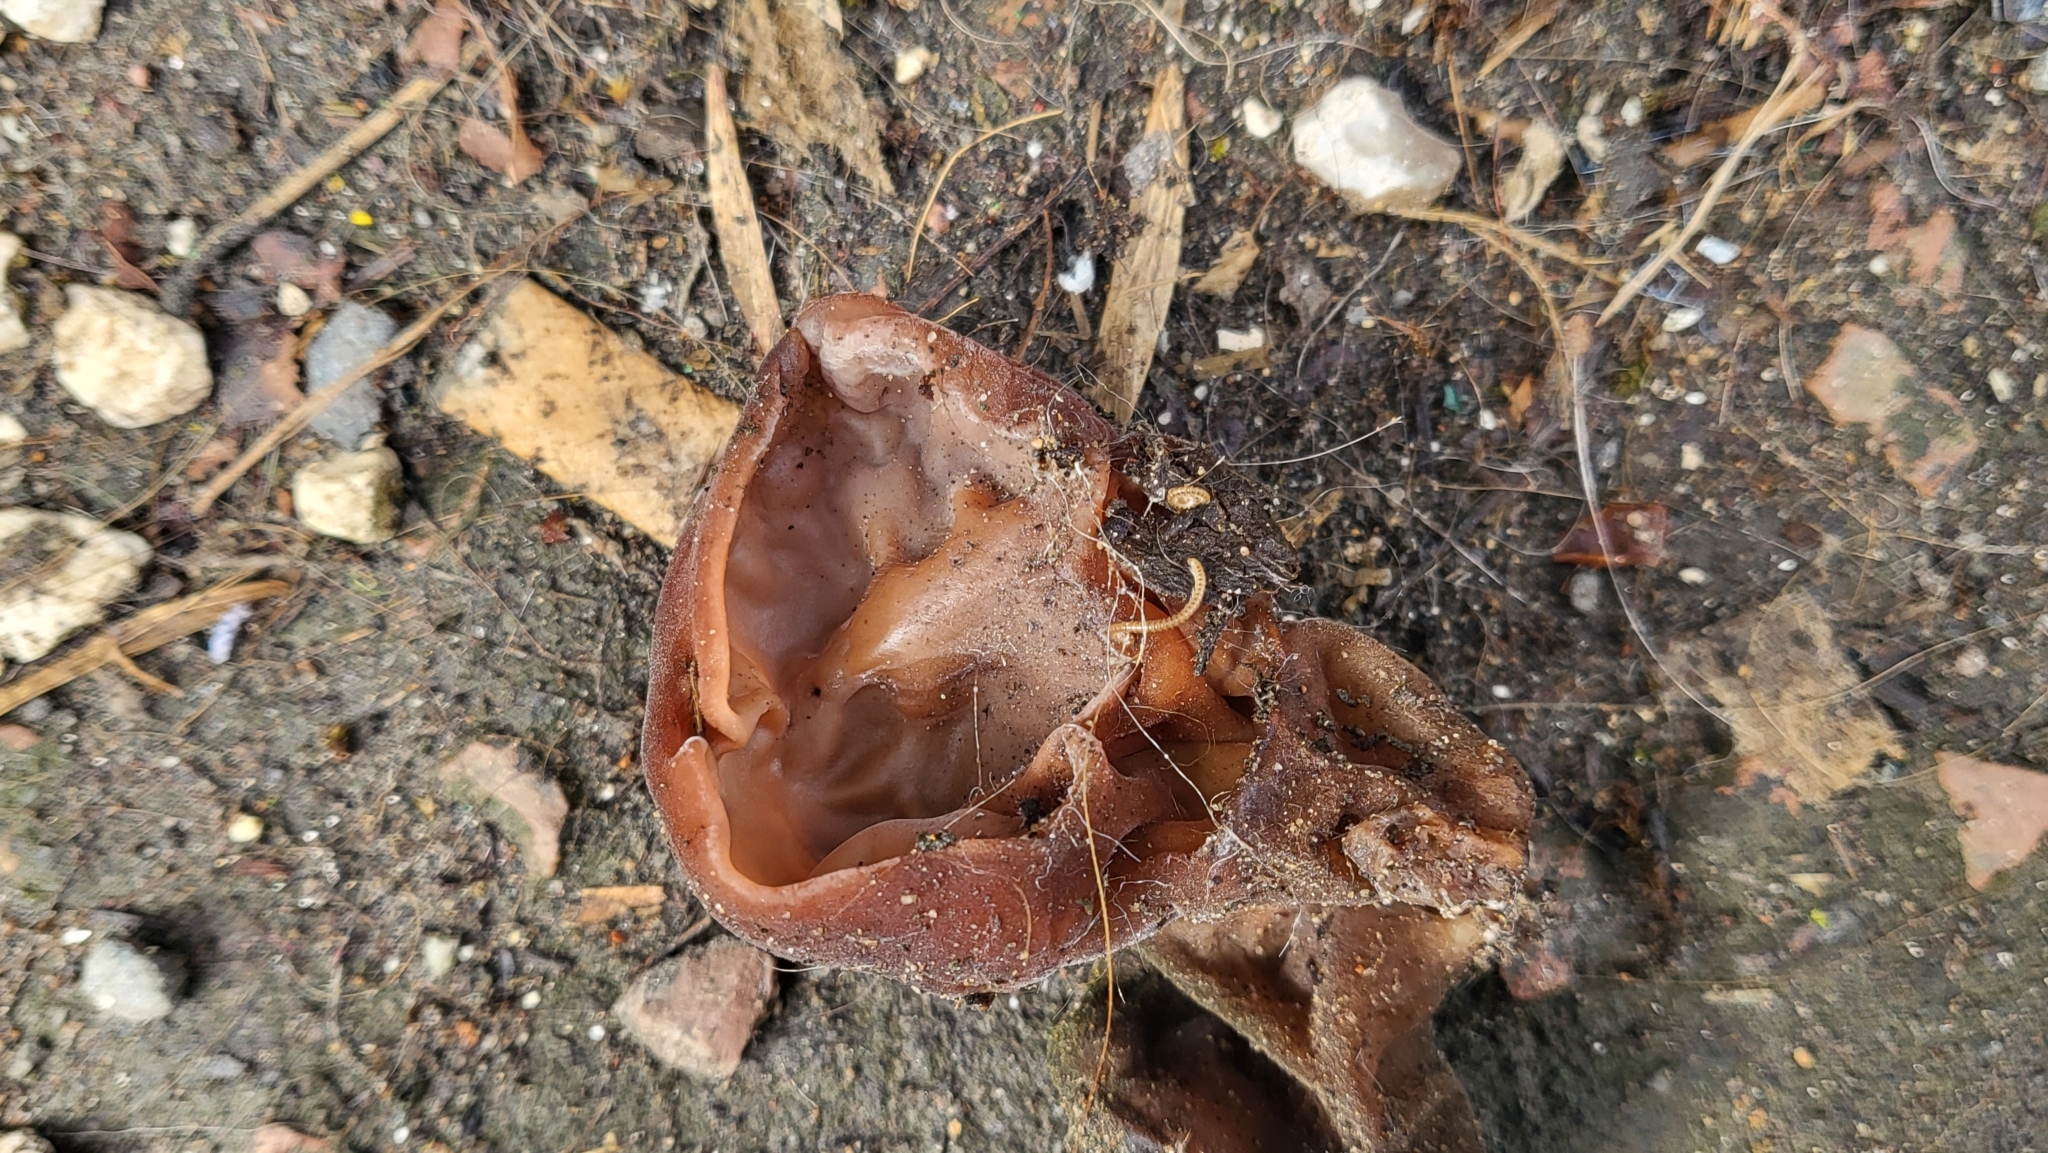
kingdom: Fungi
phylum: Basidiomycota
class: Agaricomycetes
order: Auriculariales
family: Auriculariaceae
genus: Auricularia
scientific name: Auricularia auricula-judae
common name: Jelly ear
